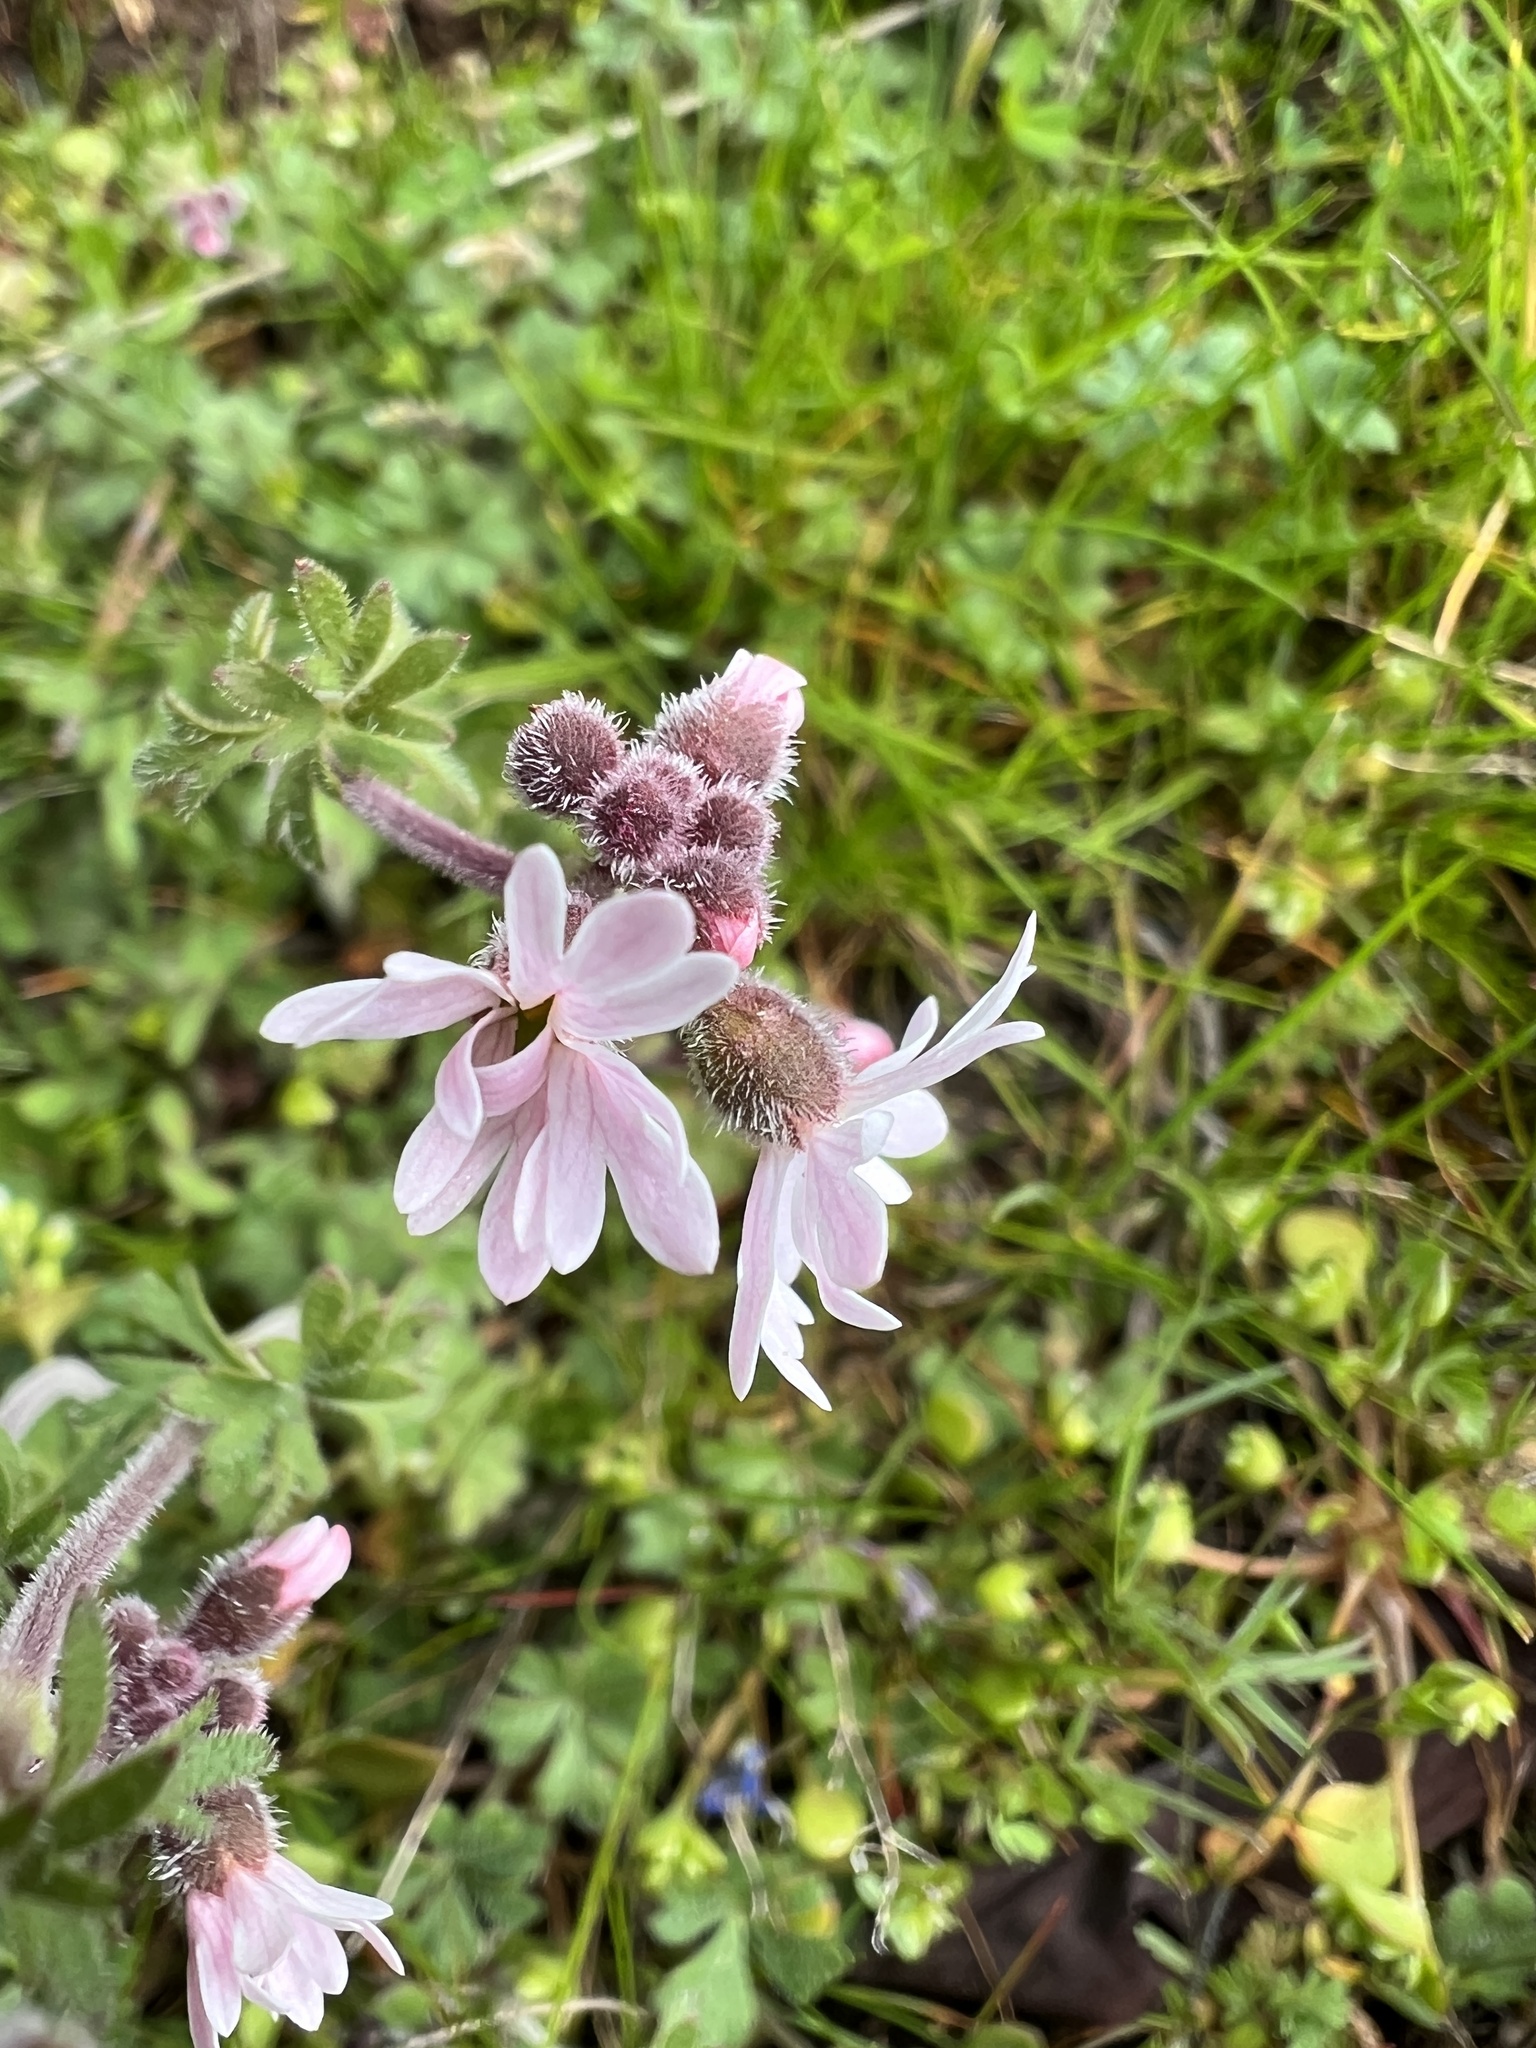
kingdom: Plantae
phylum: Tracheophyta
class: Magnoliopsida
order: Saxifragales
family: Saxifragaceae
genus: Lithophragma
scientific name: Lithophragma glabrum
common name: Bulbous prairie-star
